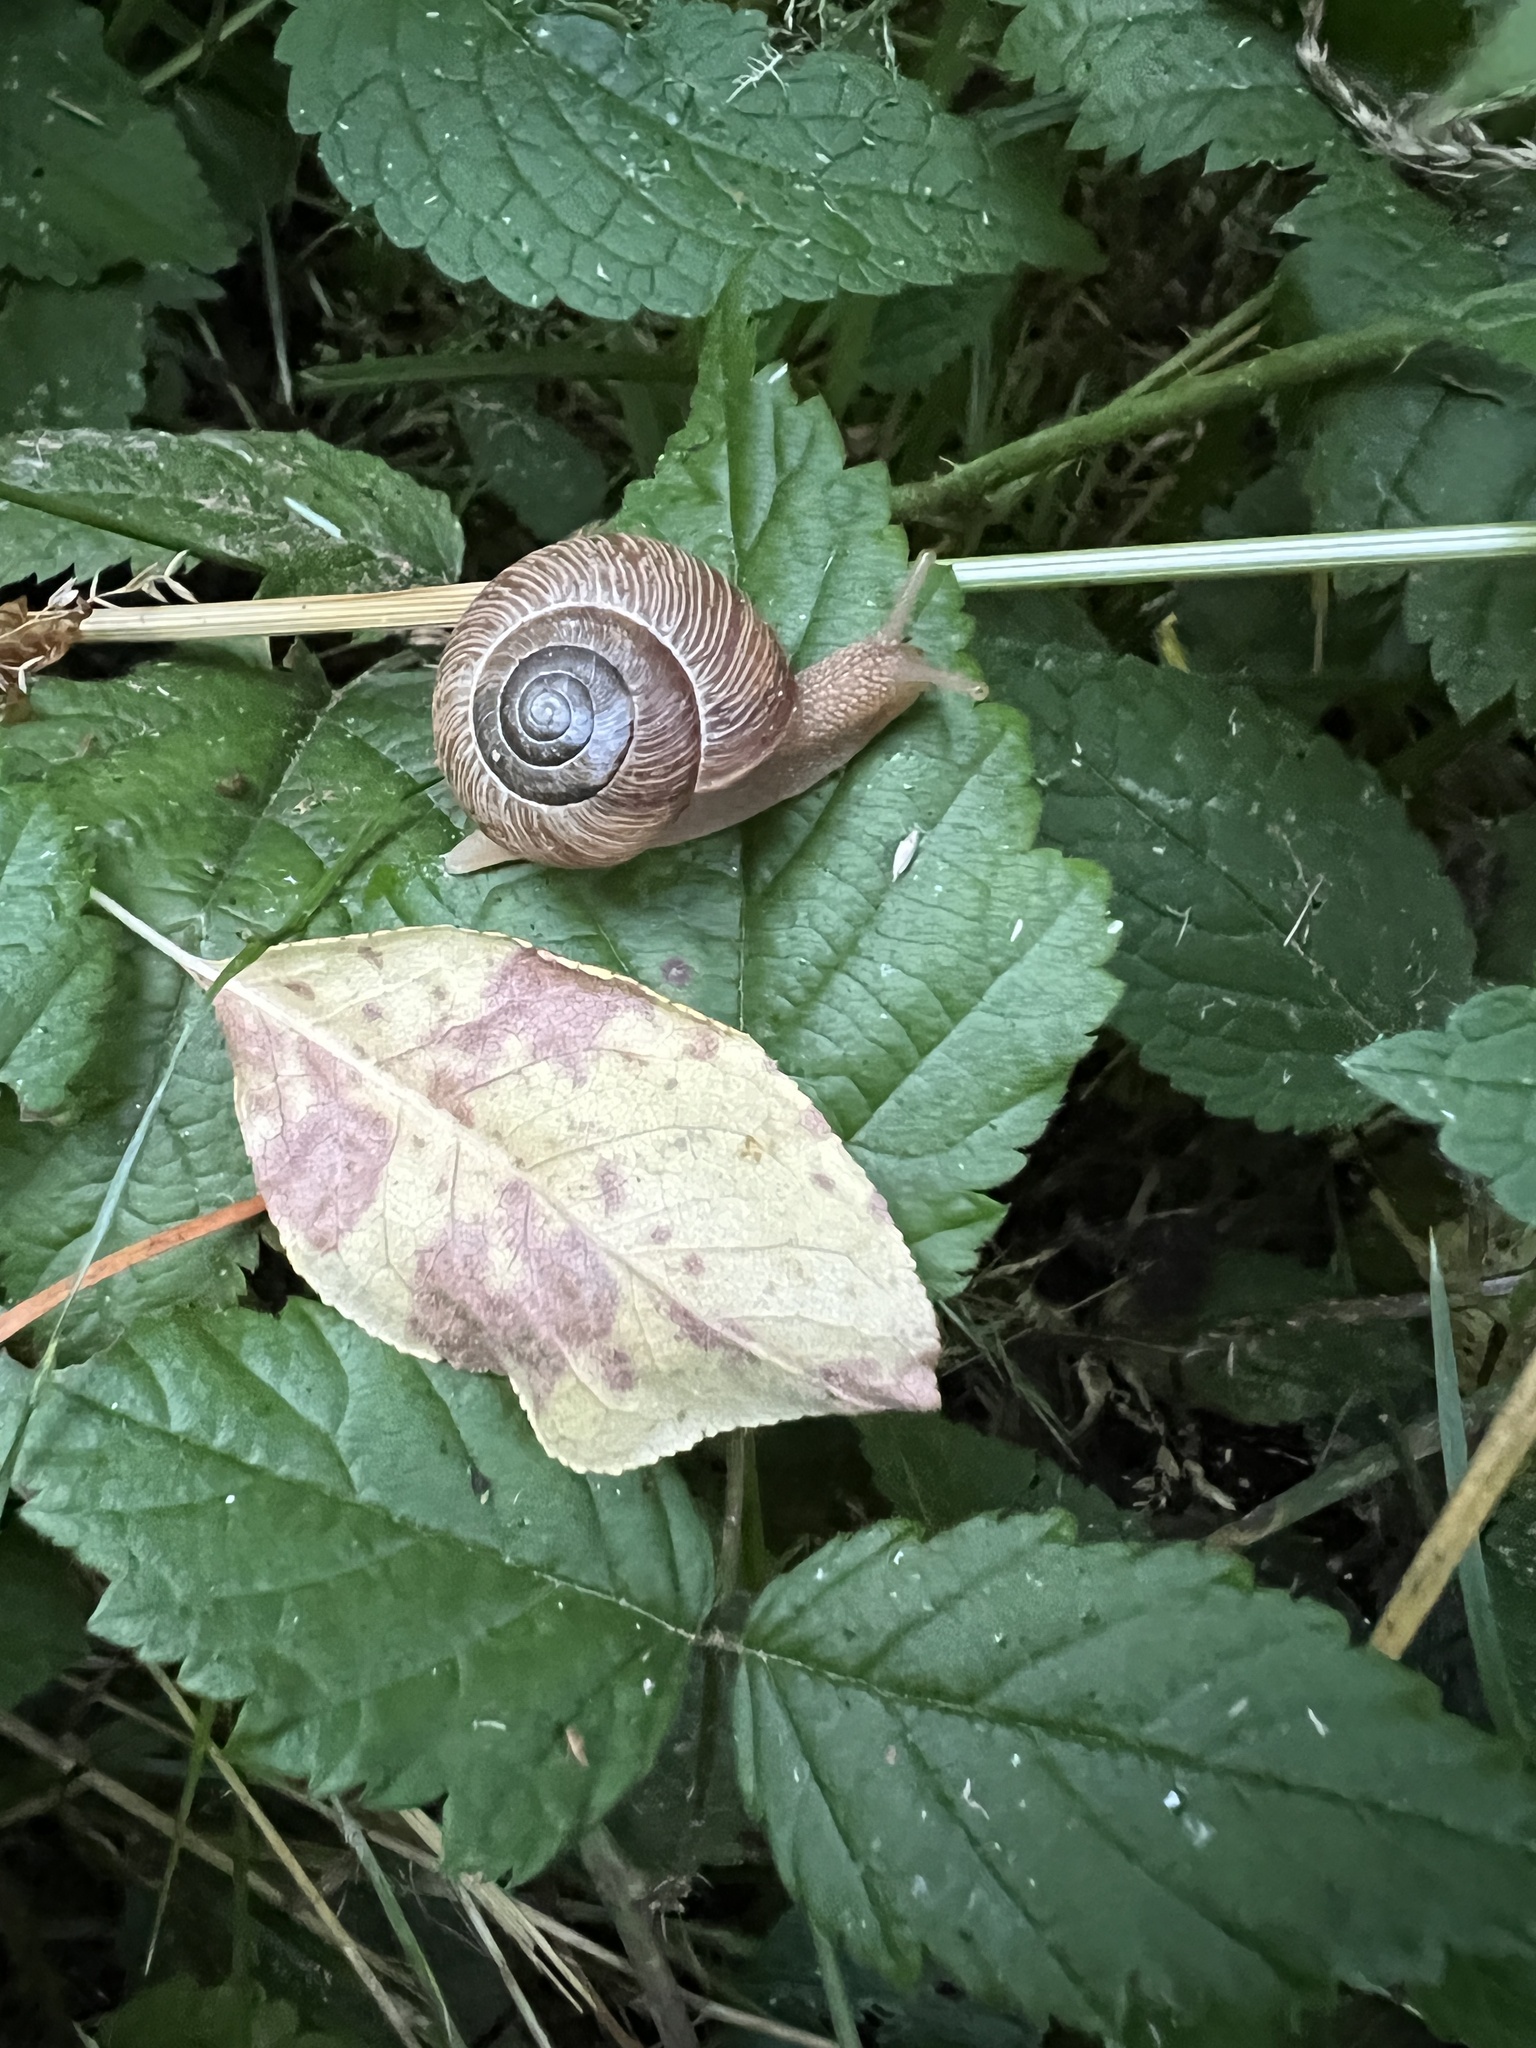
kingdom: Animalia
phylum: Mollusca
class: Gastropoda
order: Stylommatophora
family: Polygyridae
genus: Allogona
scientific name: Allogona townsendiana
